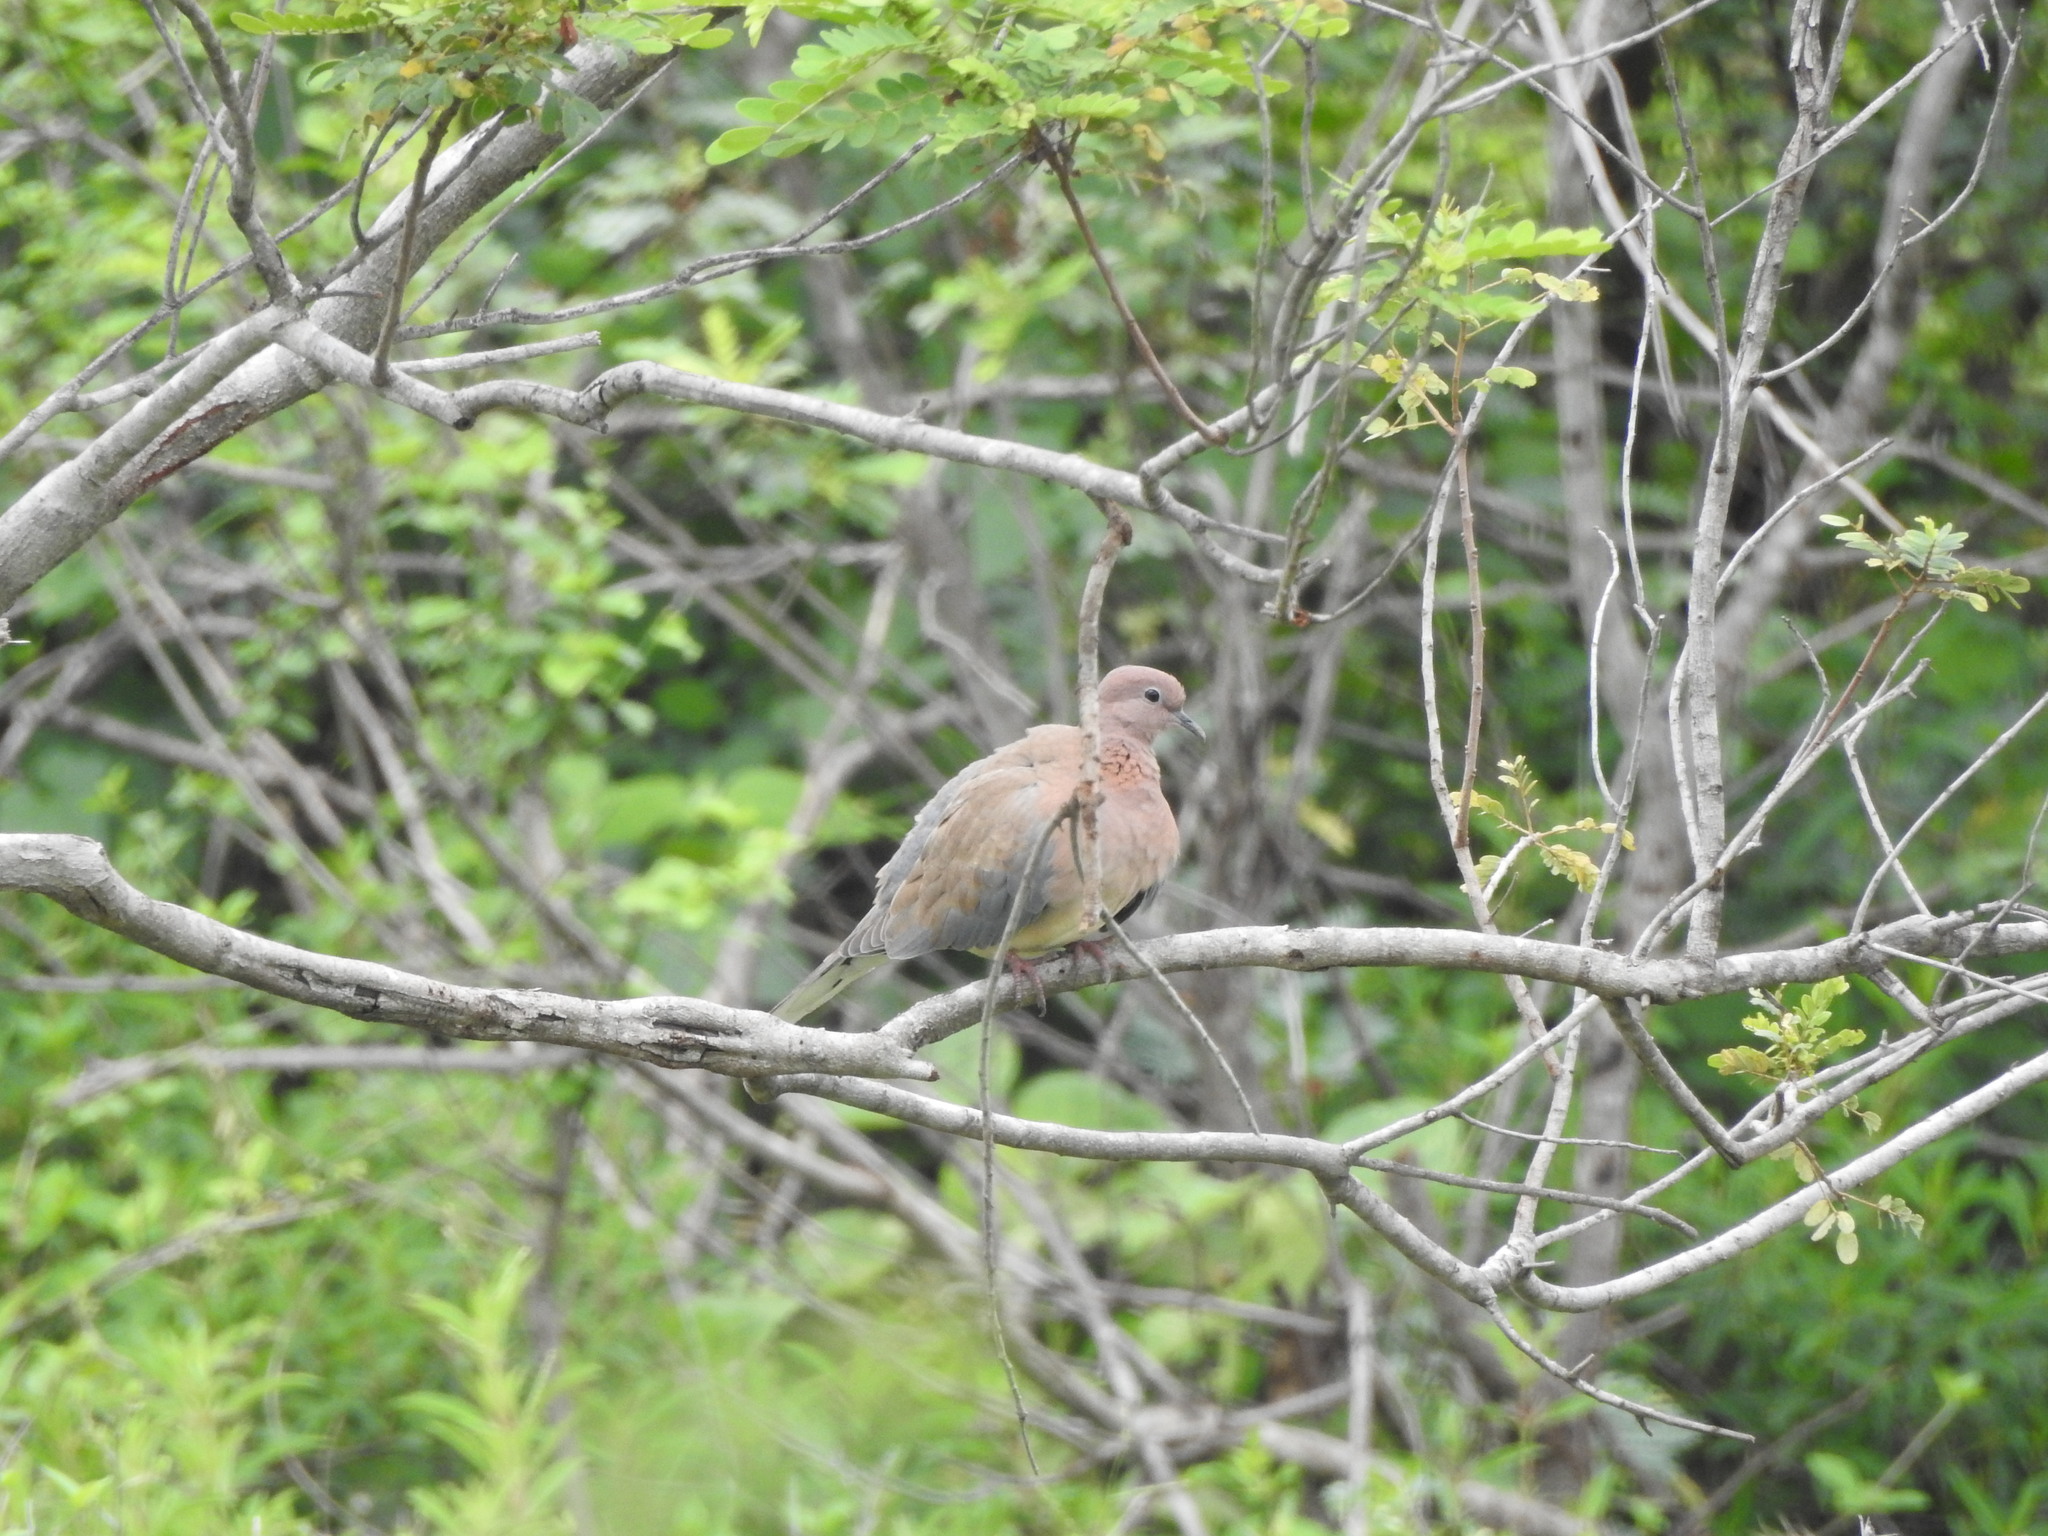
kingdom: Animalia
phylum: Chordata
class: Aves
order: Columbiformes
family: Columbidae
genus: Spilopelia
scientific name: Spilopelia senegalensis
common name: Laughing dove
